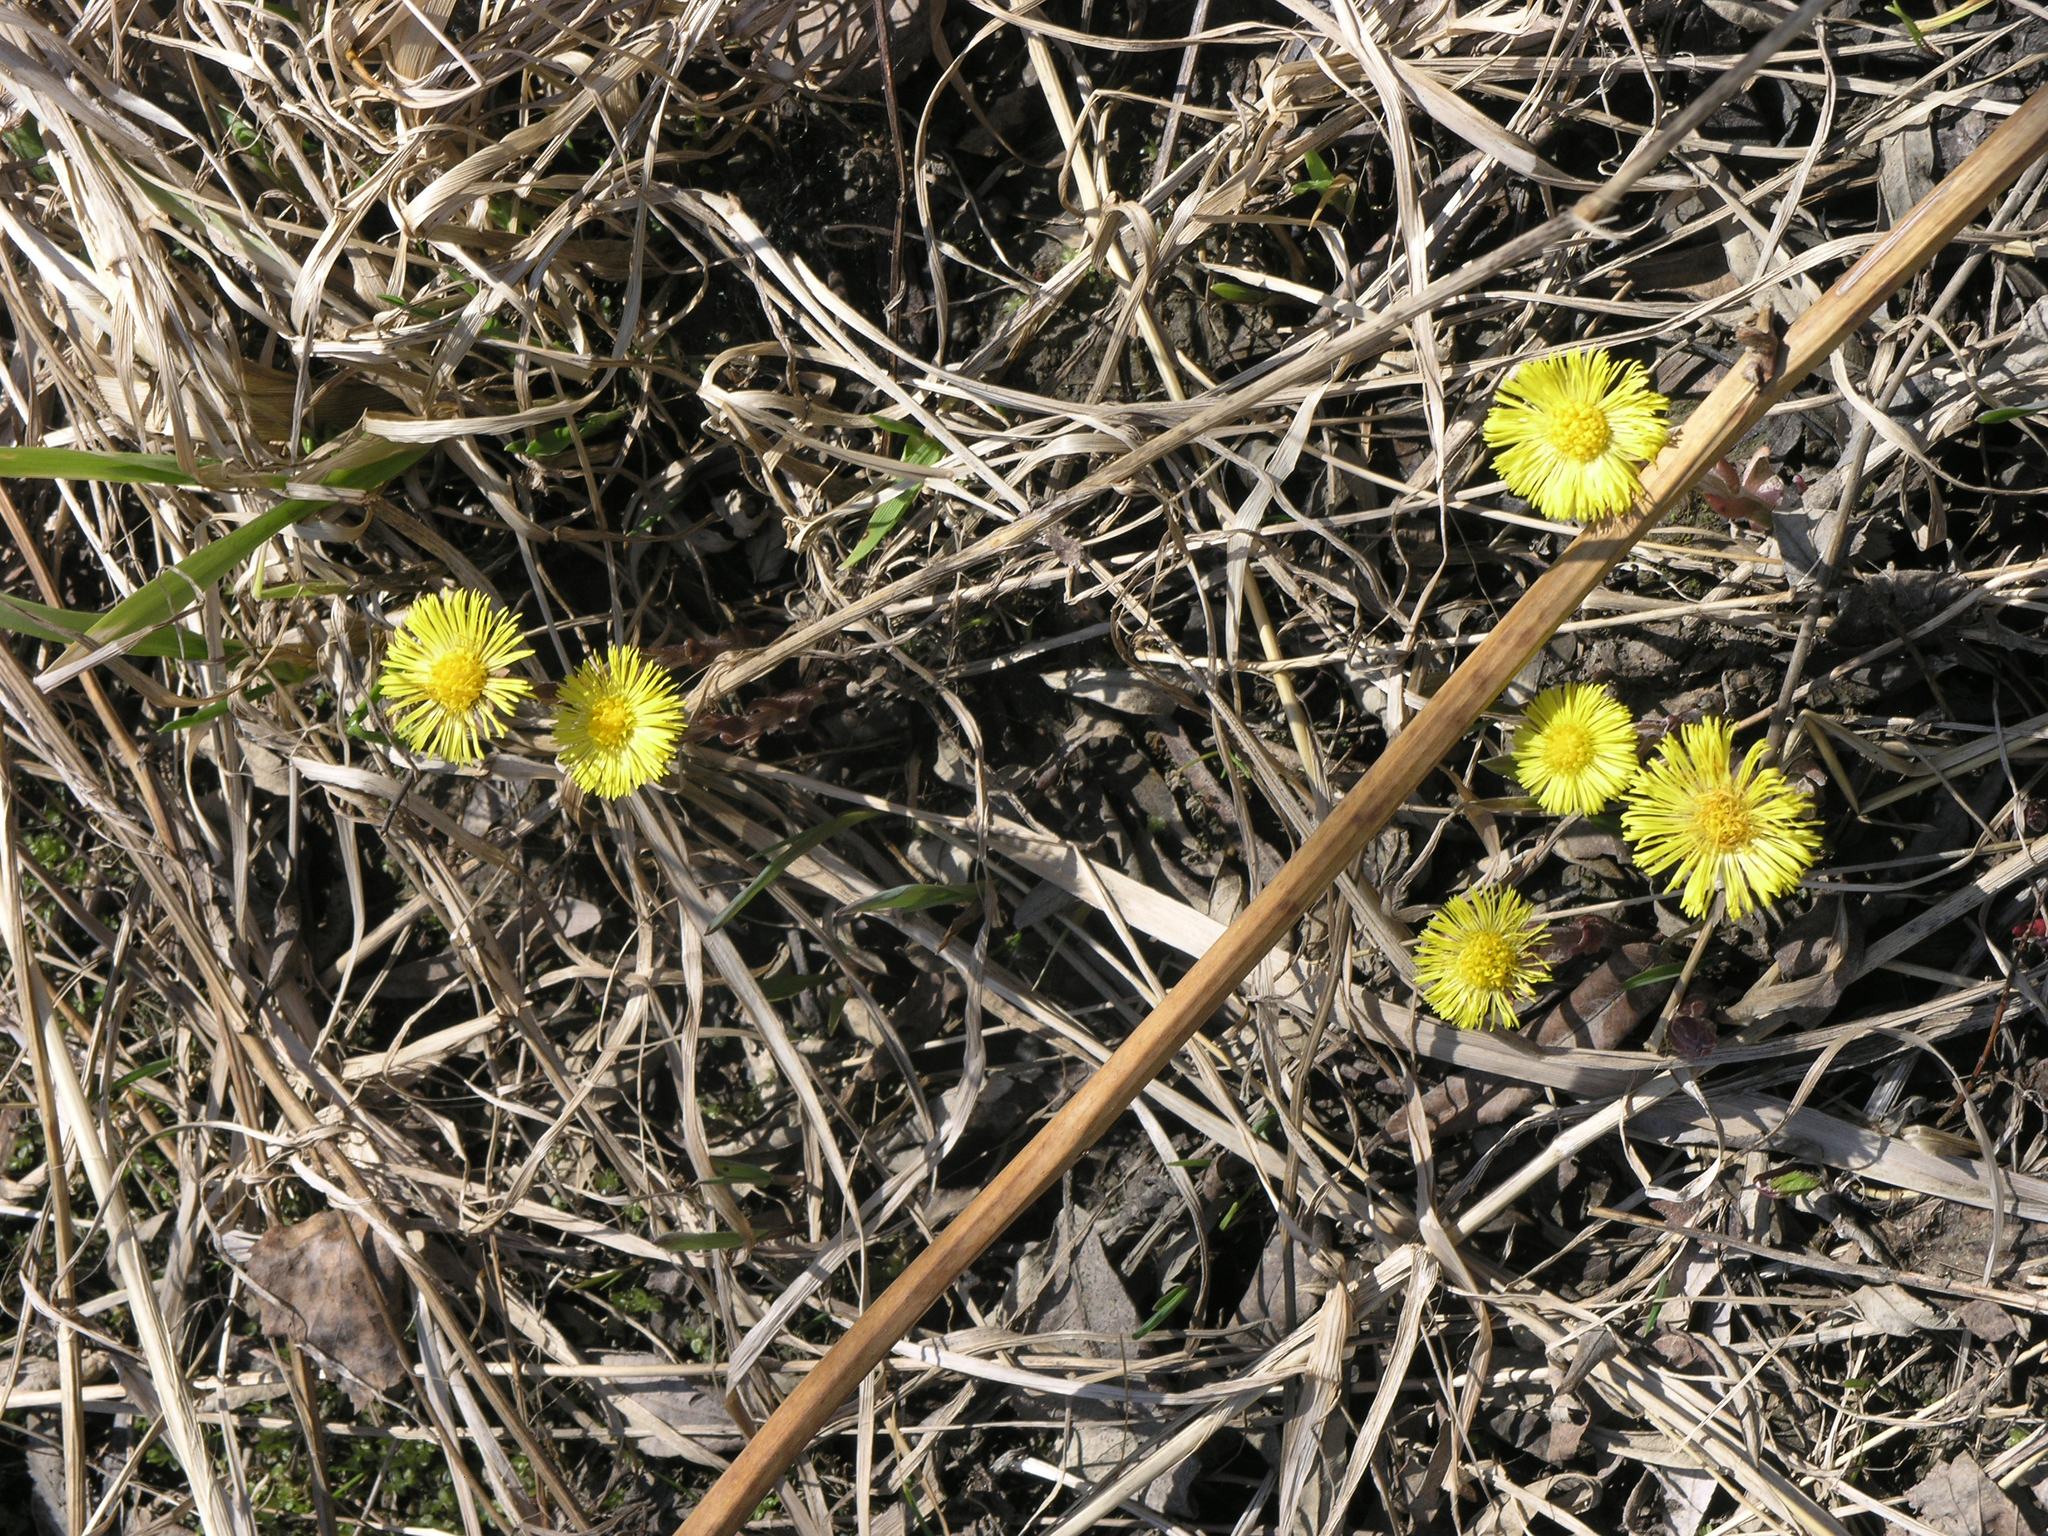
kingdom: Plantae
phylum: Tracheophyta
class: Magnoliopsida
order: Asterales
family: Asteraceae
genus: Tussilago
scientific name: Tussilago farfara
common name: Coltsfoot
